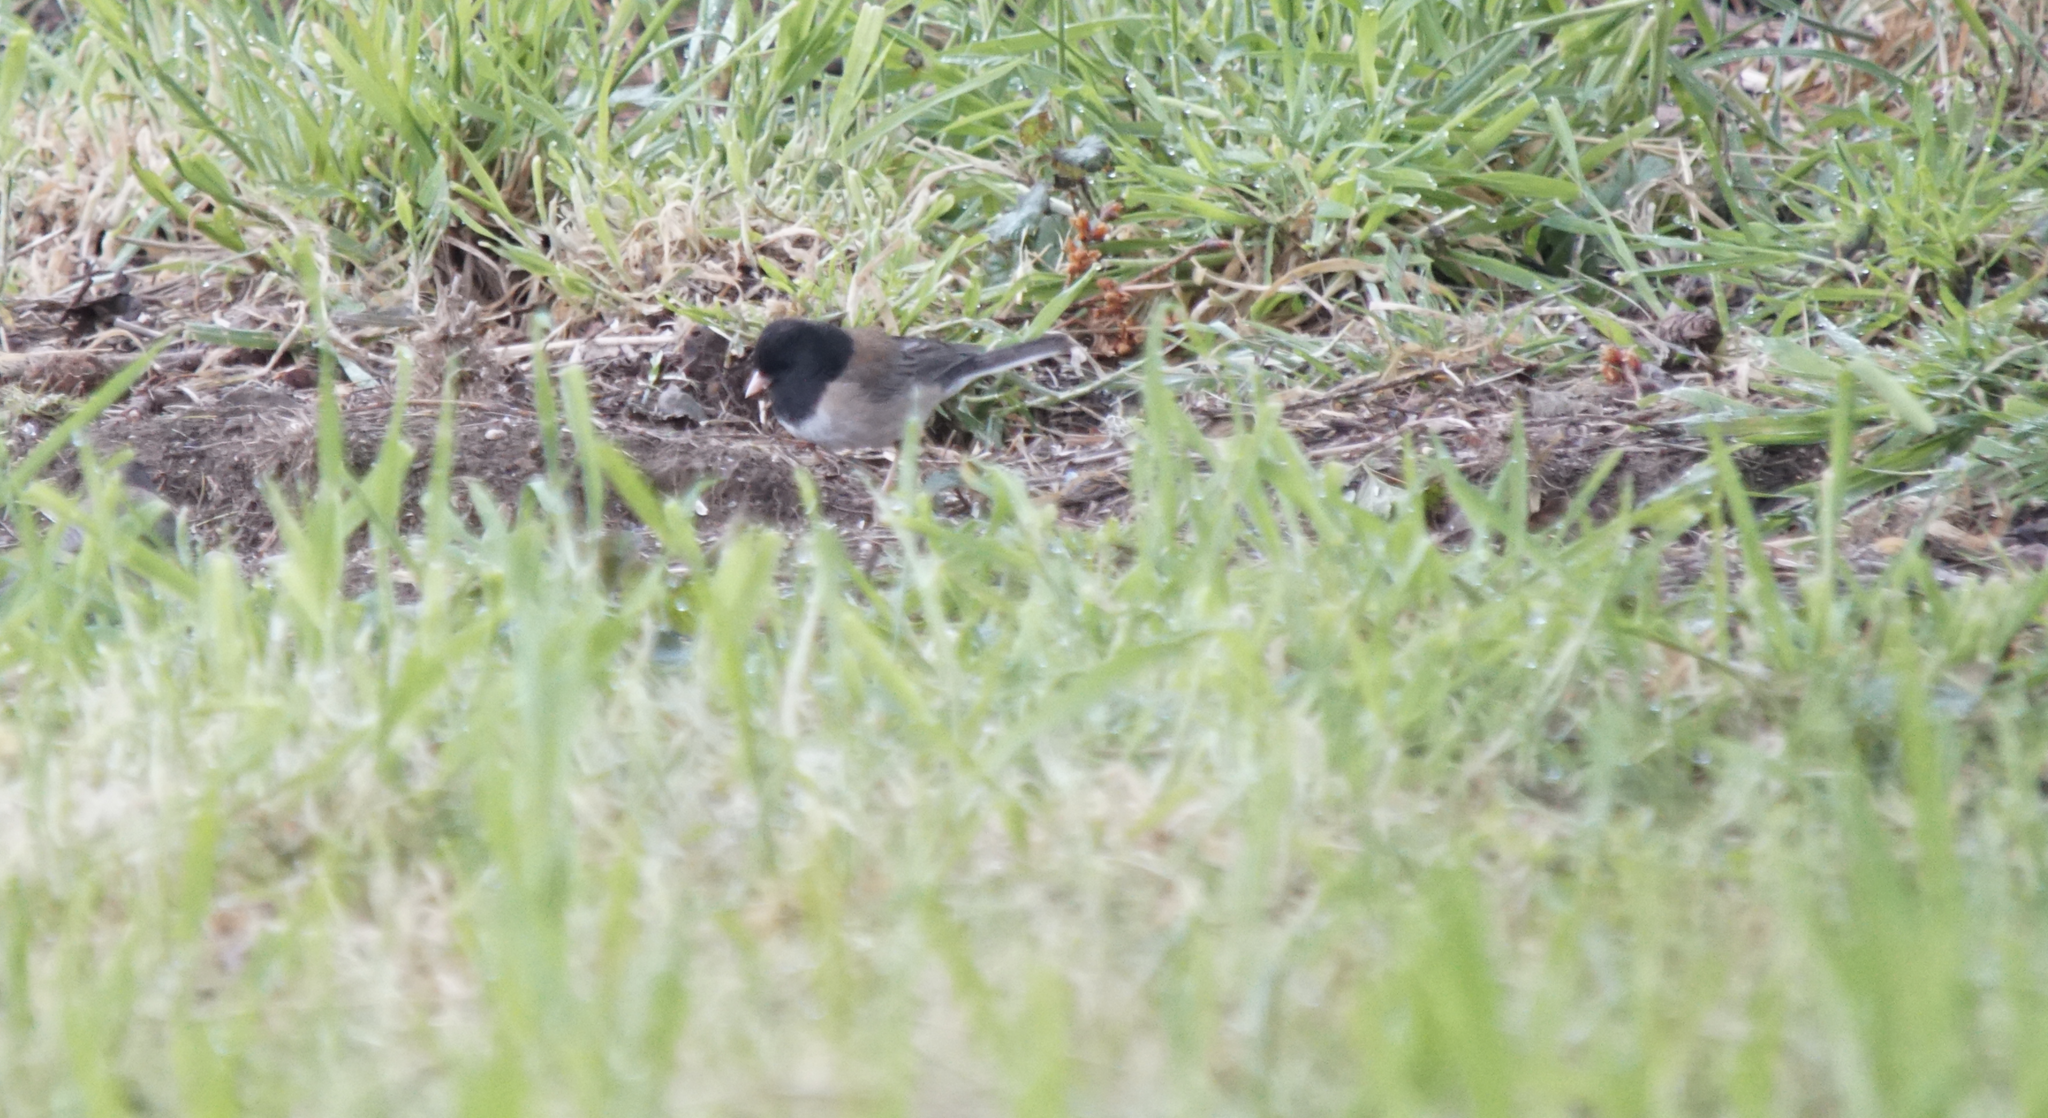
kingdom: Animalia
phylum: Chordata
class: Aves
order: Passeriformes
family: Passerellidae
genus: Junco
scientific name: Junco hyemalis
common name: Dark-eyed junco
